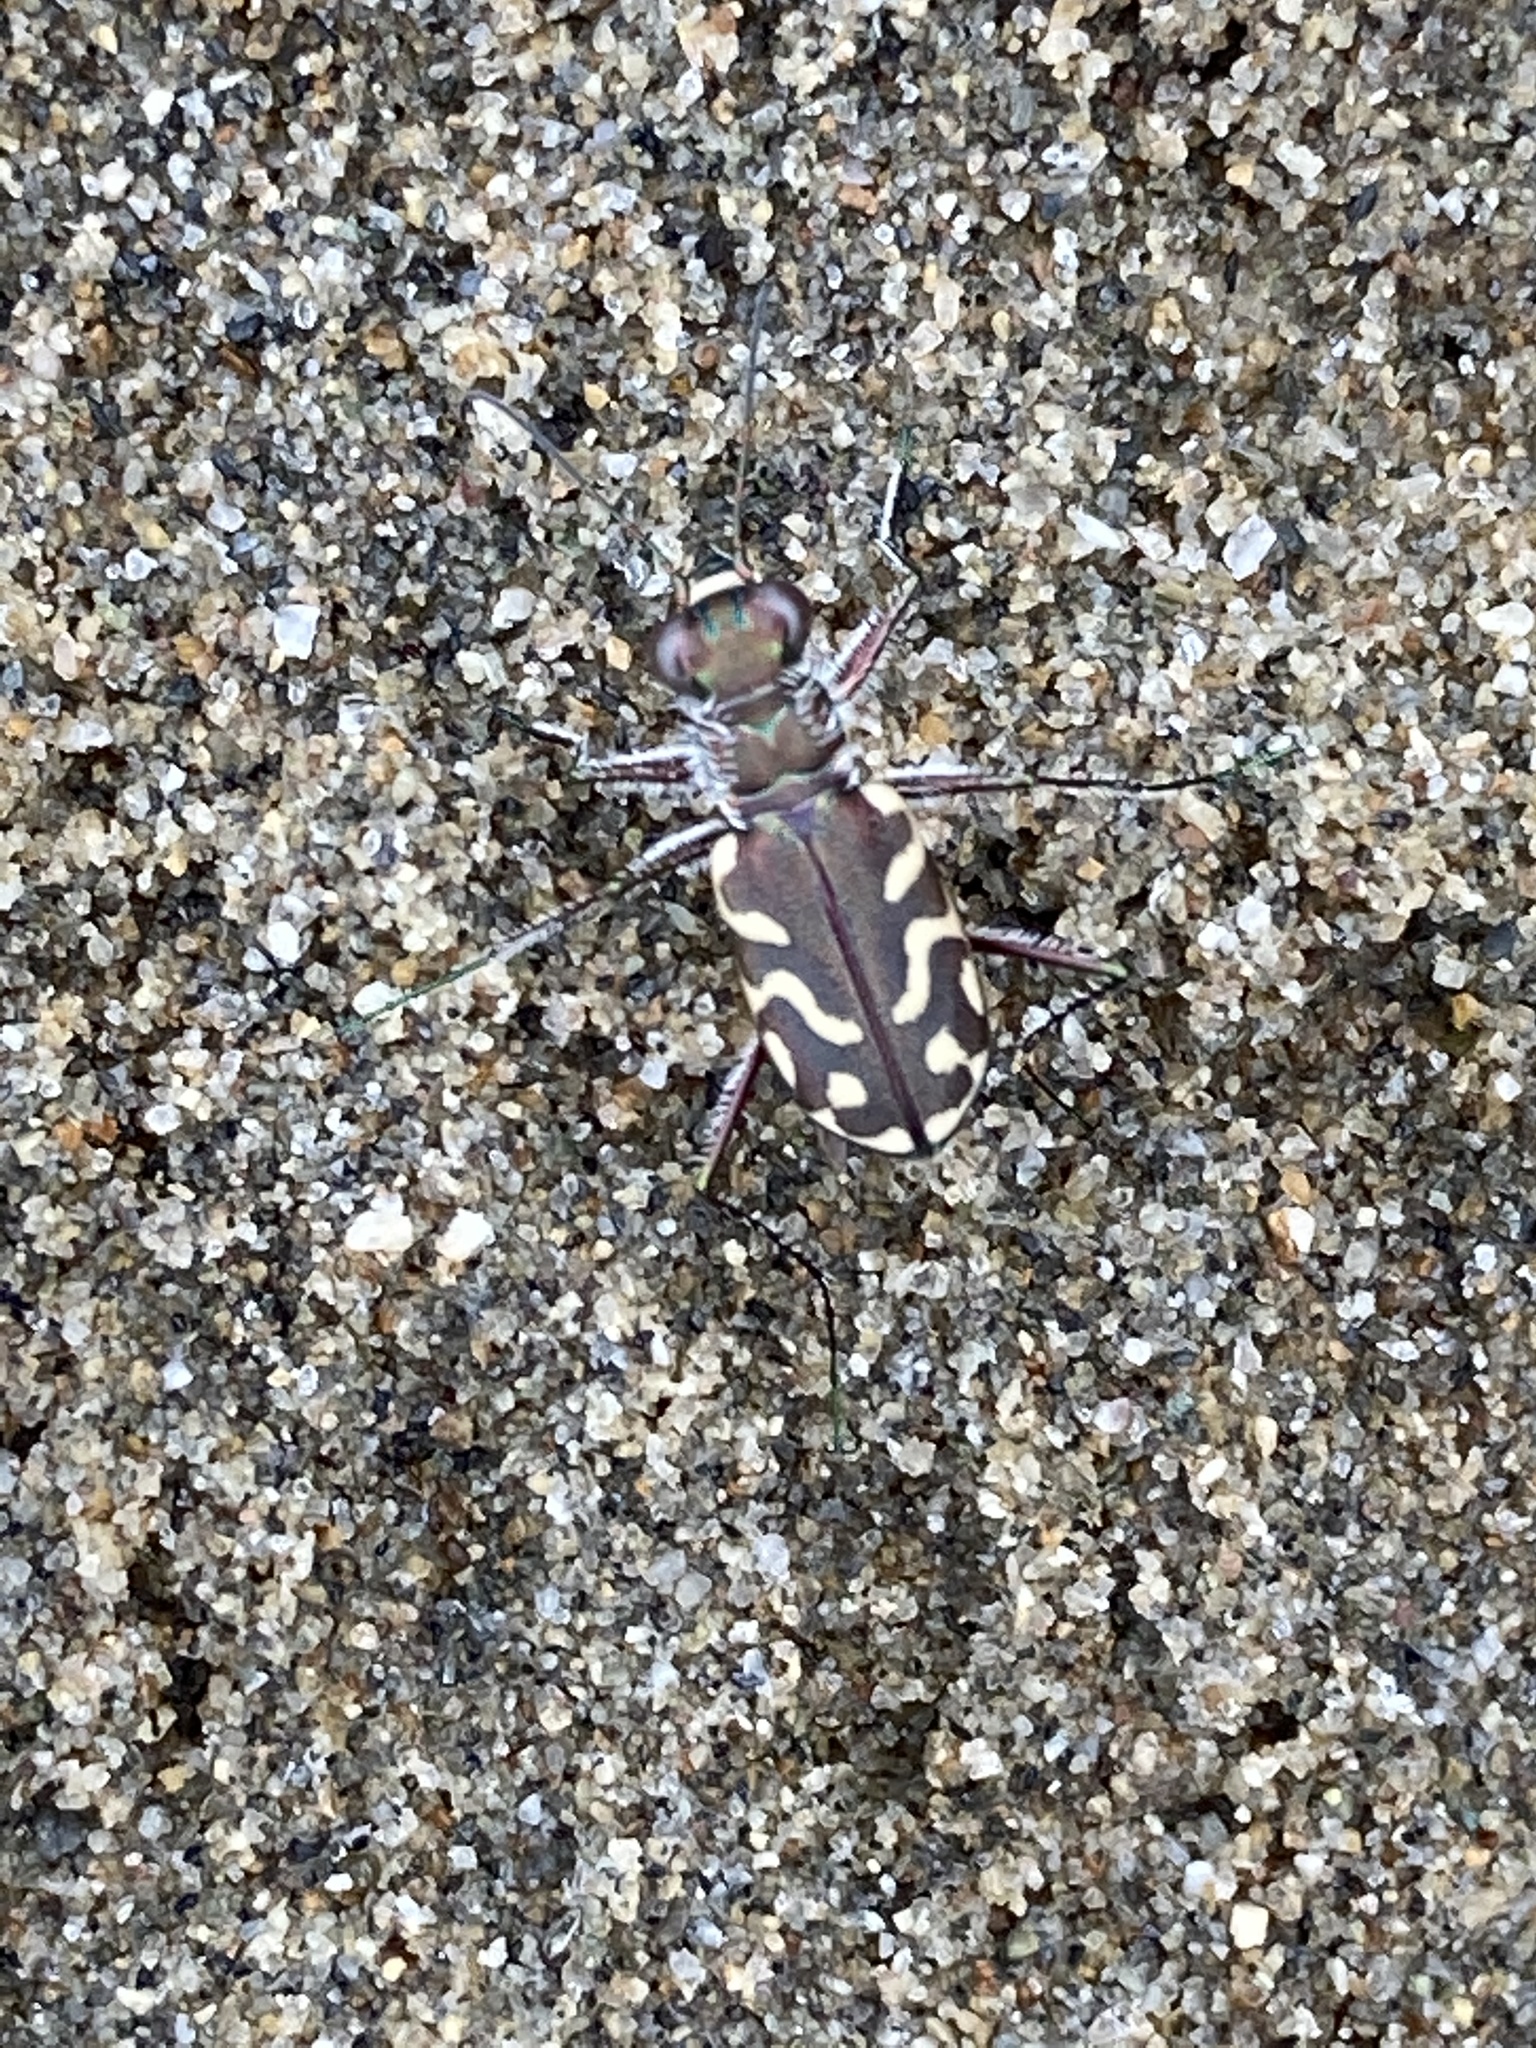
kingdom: Animalia
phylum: Arthropoda
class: Insecta
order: Coleoptera
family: Carabidae
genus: Cicindela
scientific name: Cicindela carthagena
